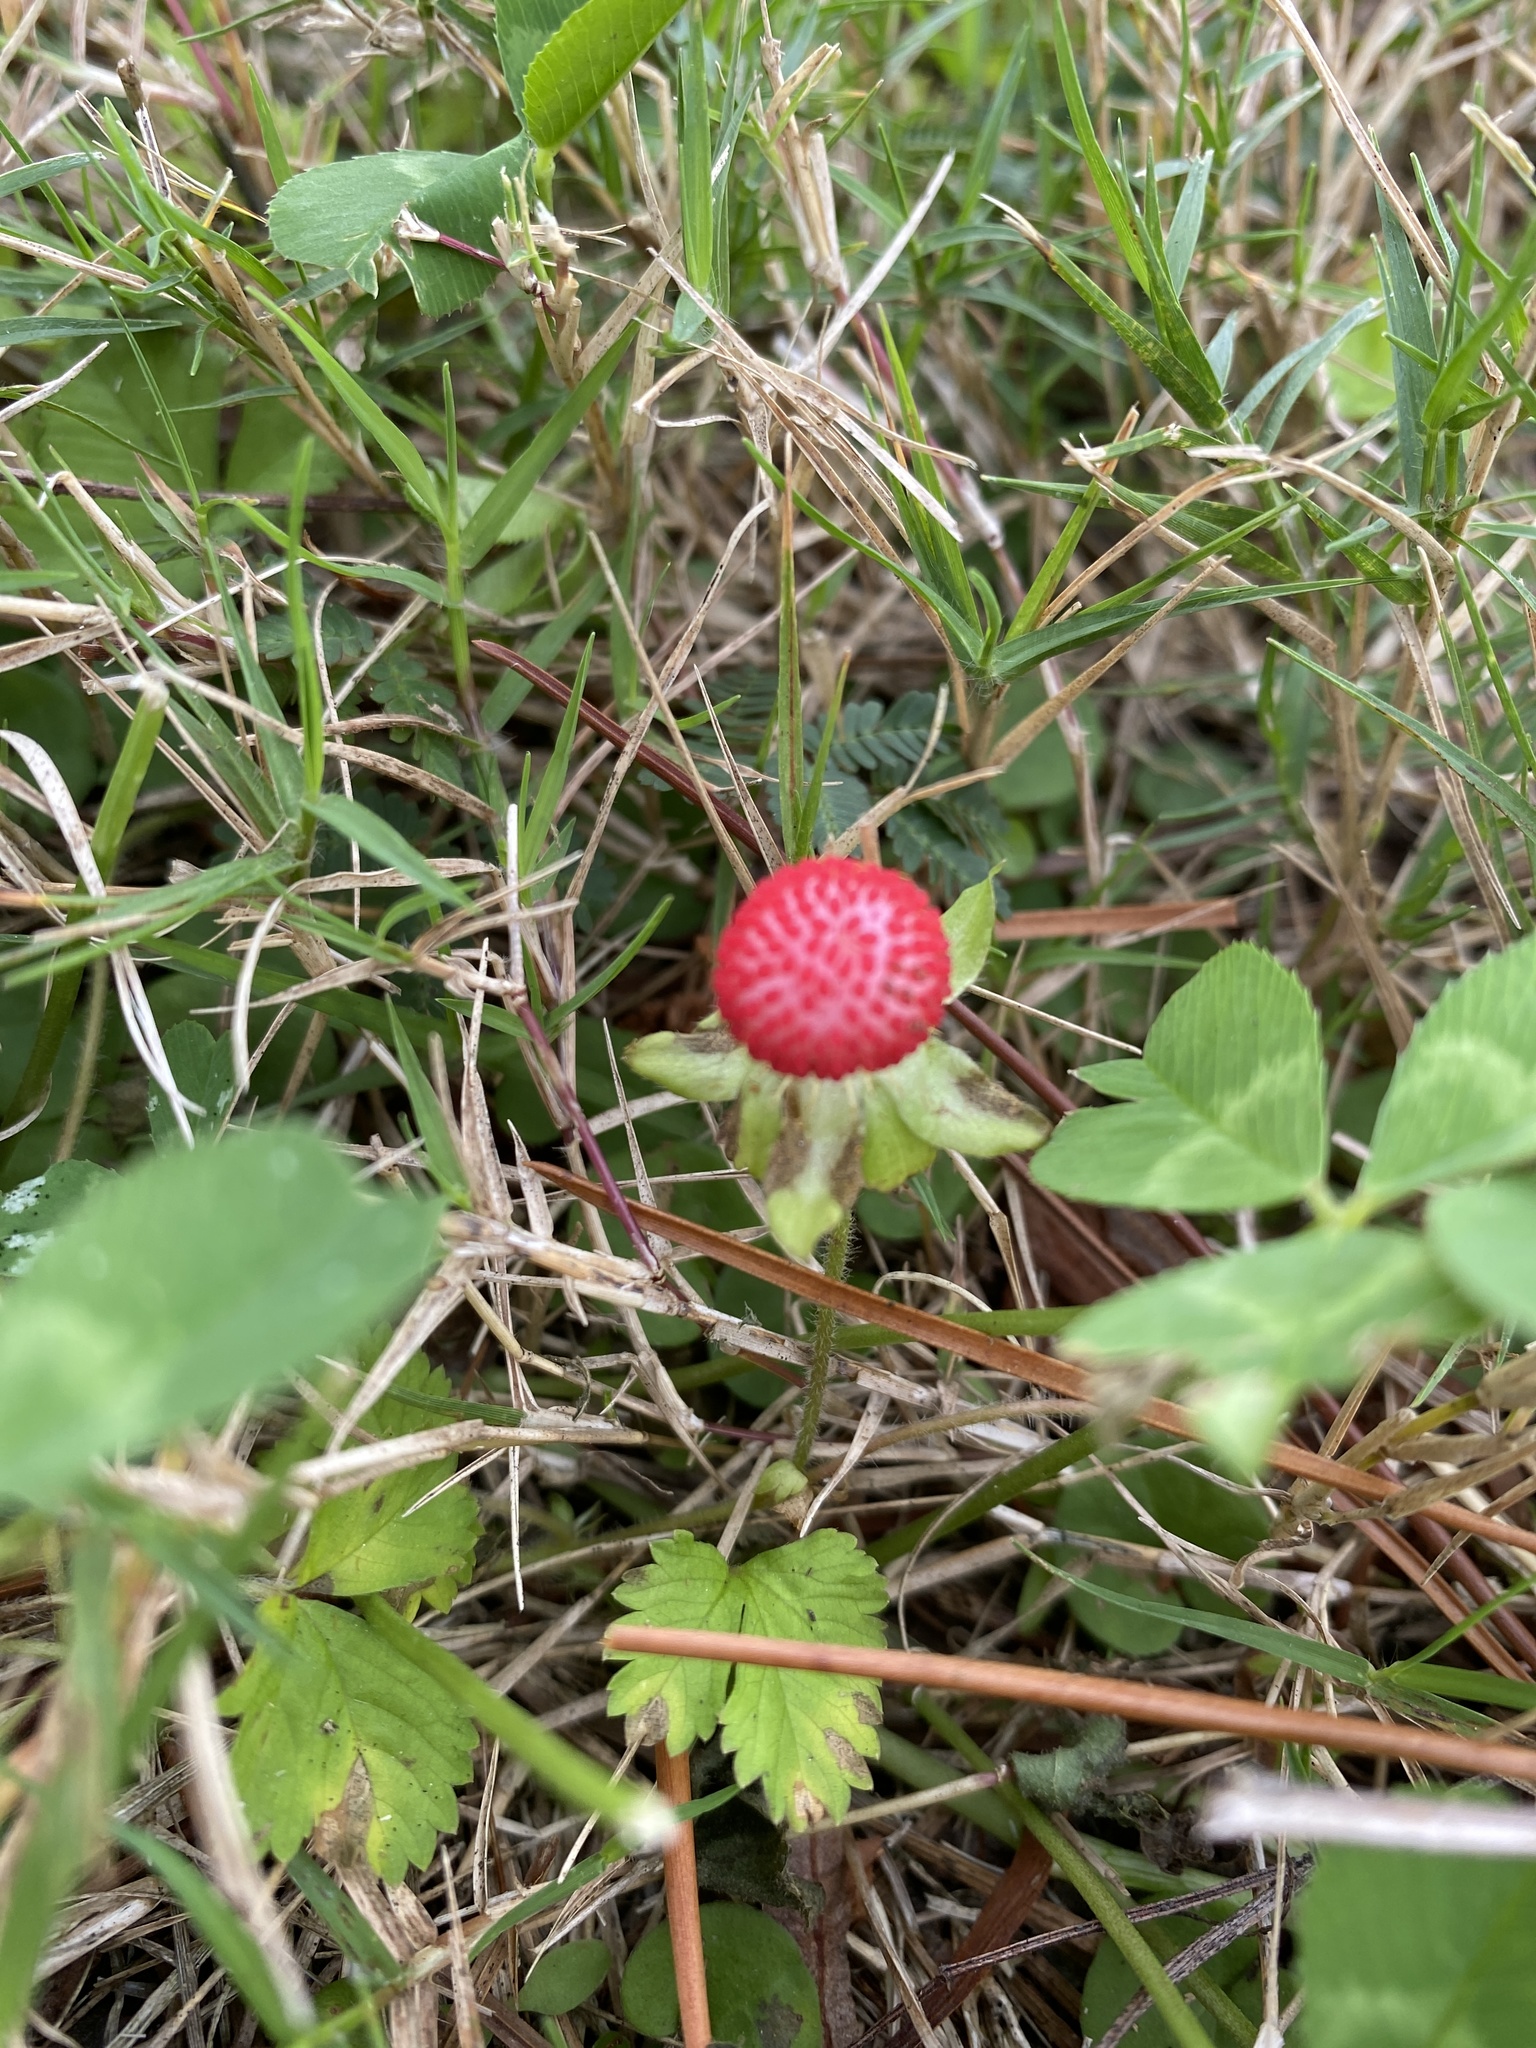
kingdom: Plantae
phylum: Tracheophyta
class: Magnoliopsida
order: Rosales
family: Rosaceae
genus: Potentilla
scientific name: Potentilla indica
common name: Yellow-flowered strawberry
